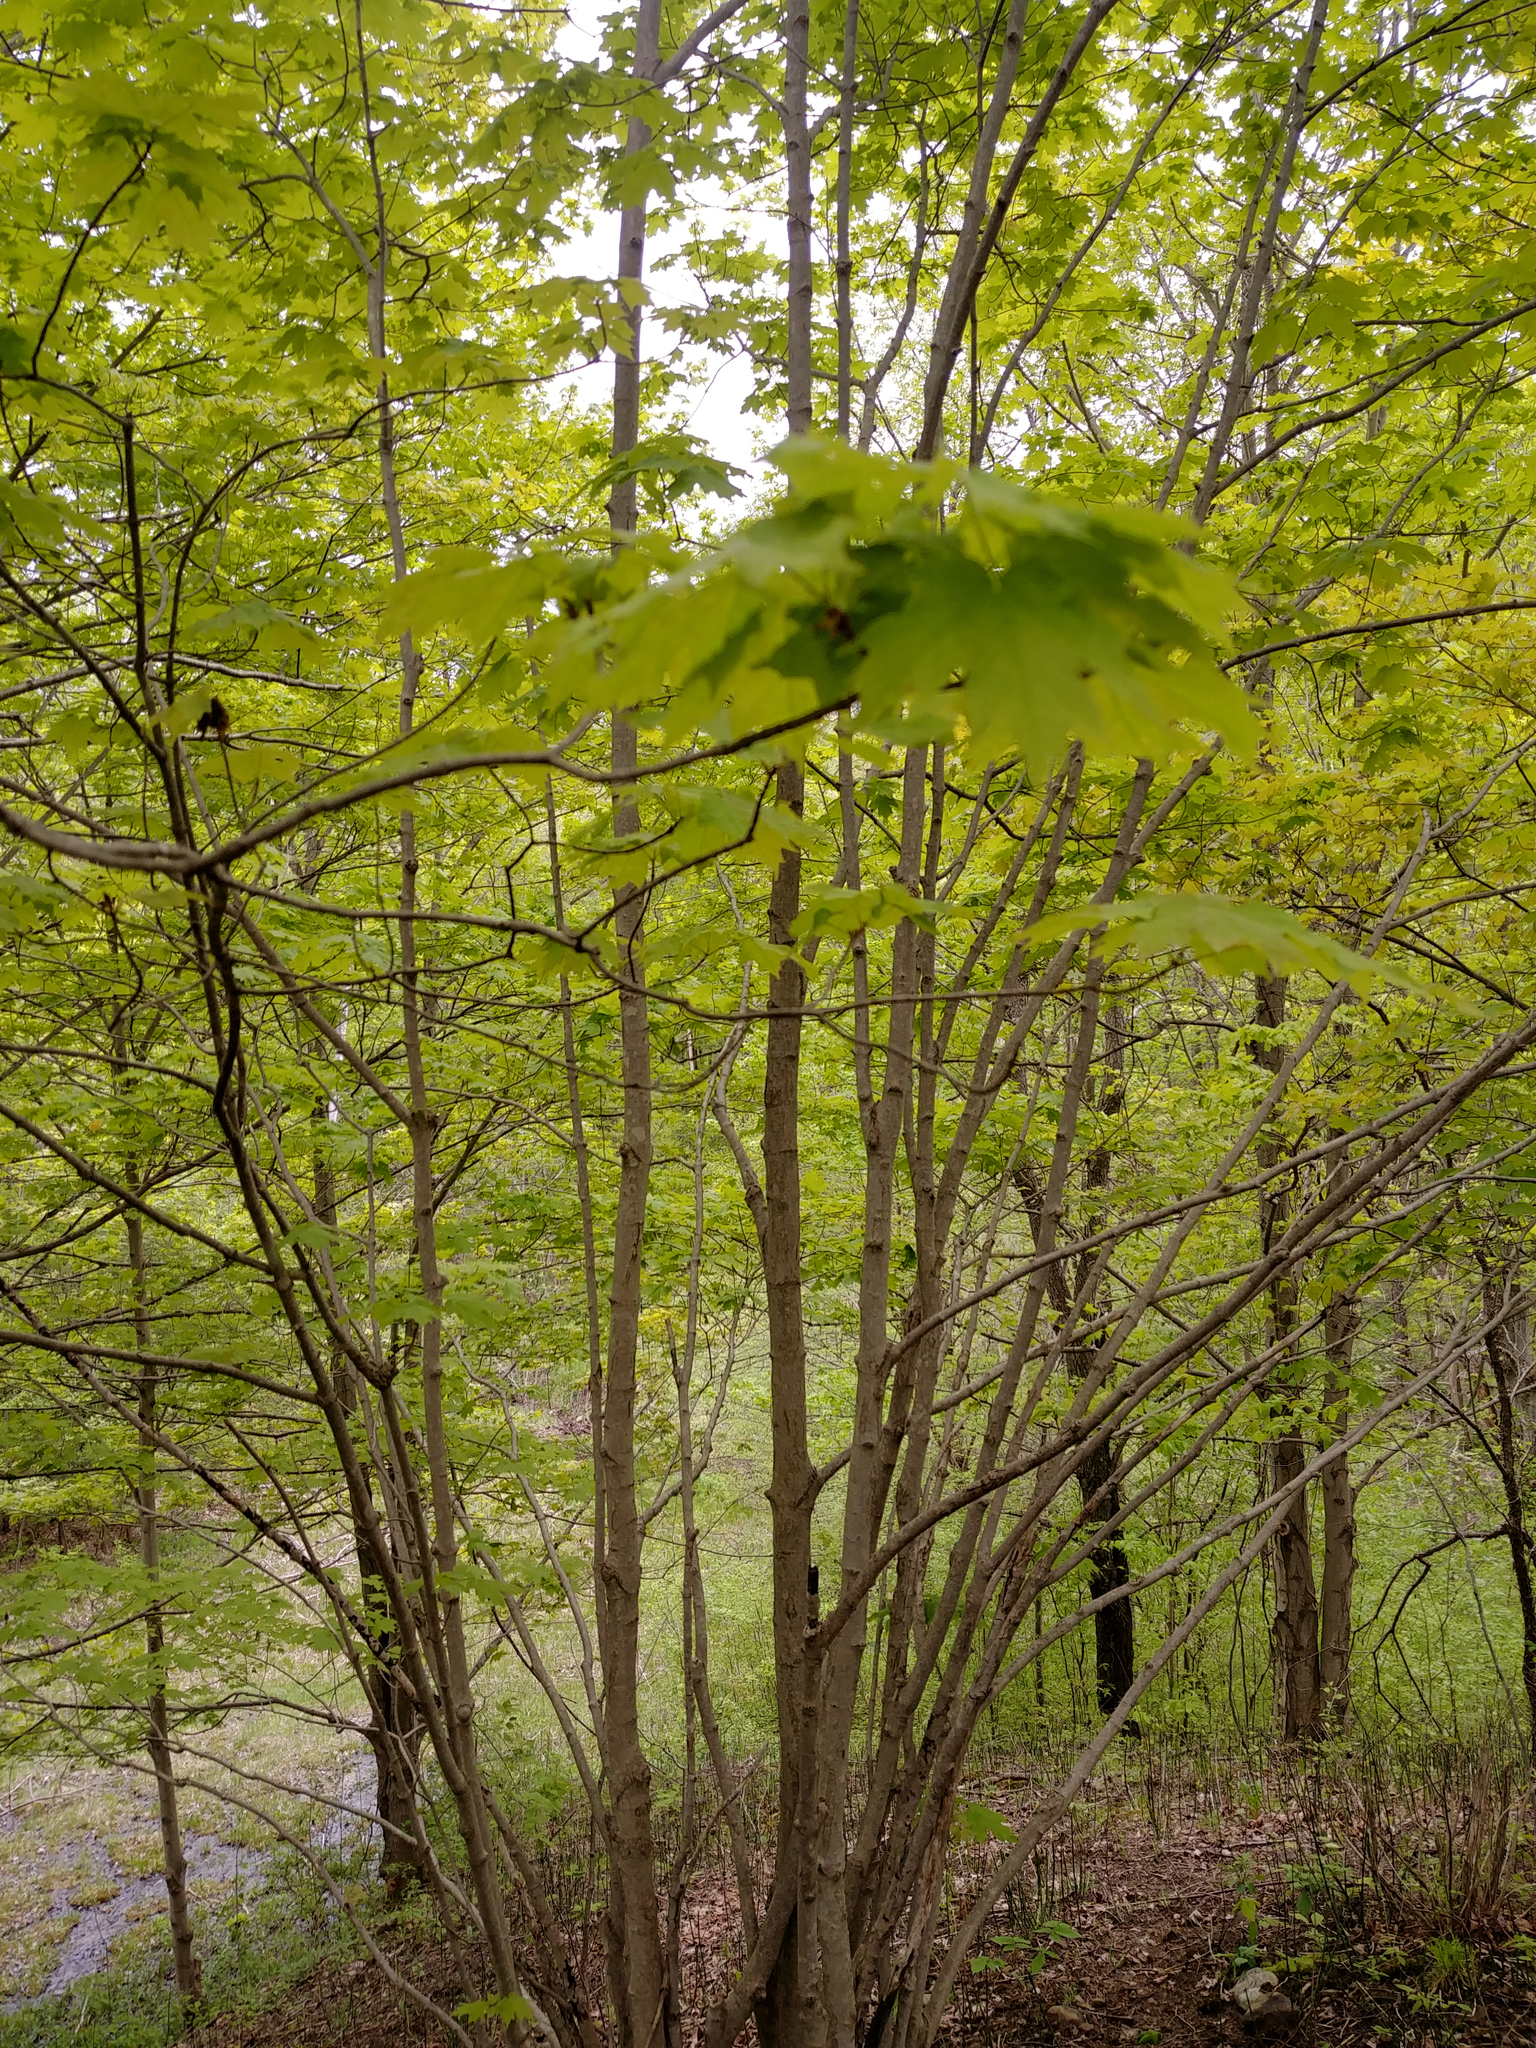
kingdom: Plantae
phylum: Tracheophyta
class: Magnoliopsida
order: Sapindales
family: Sapindaceae
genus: Acer
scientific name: Acer saccharum
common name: Sugar maple
